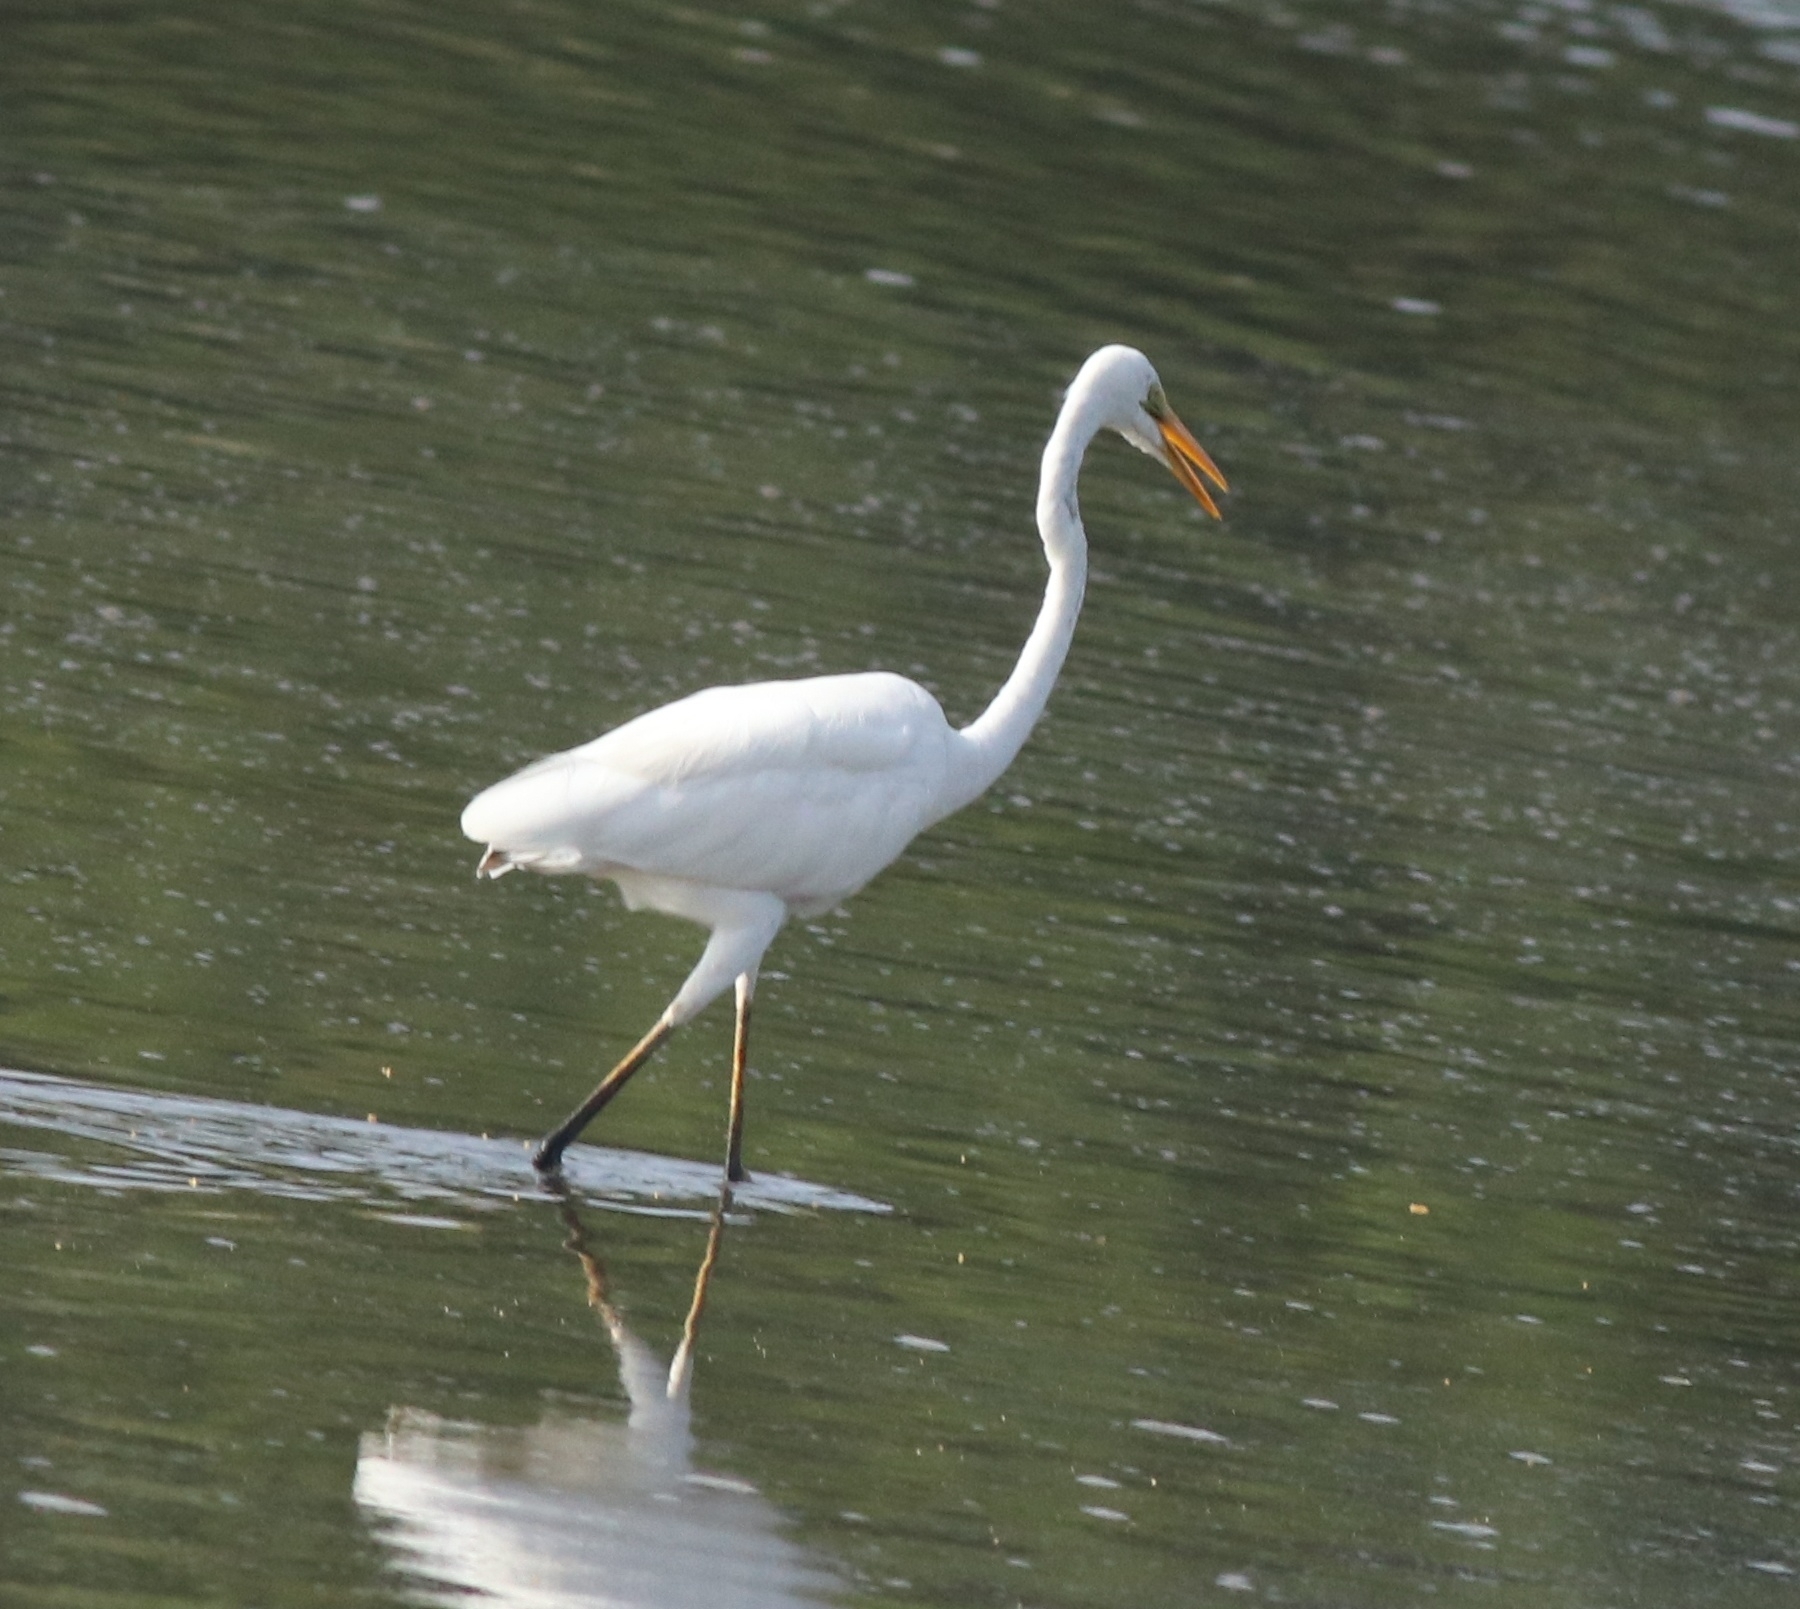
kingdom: Animalia
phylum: Chordata
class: Aves
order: Pelecaniformes
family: Ardeidae
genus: Ardea
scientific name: Ardea alba
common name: Great egret
